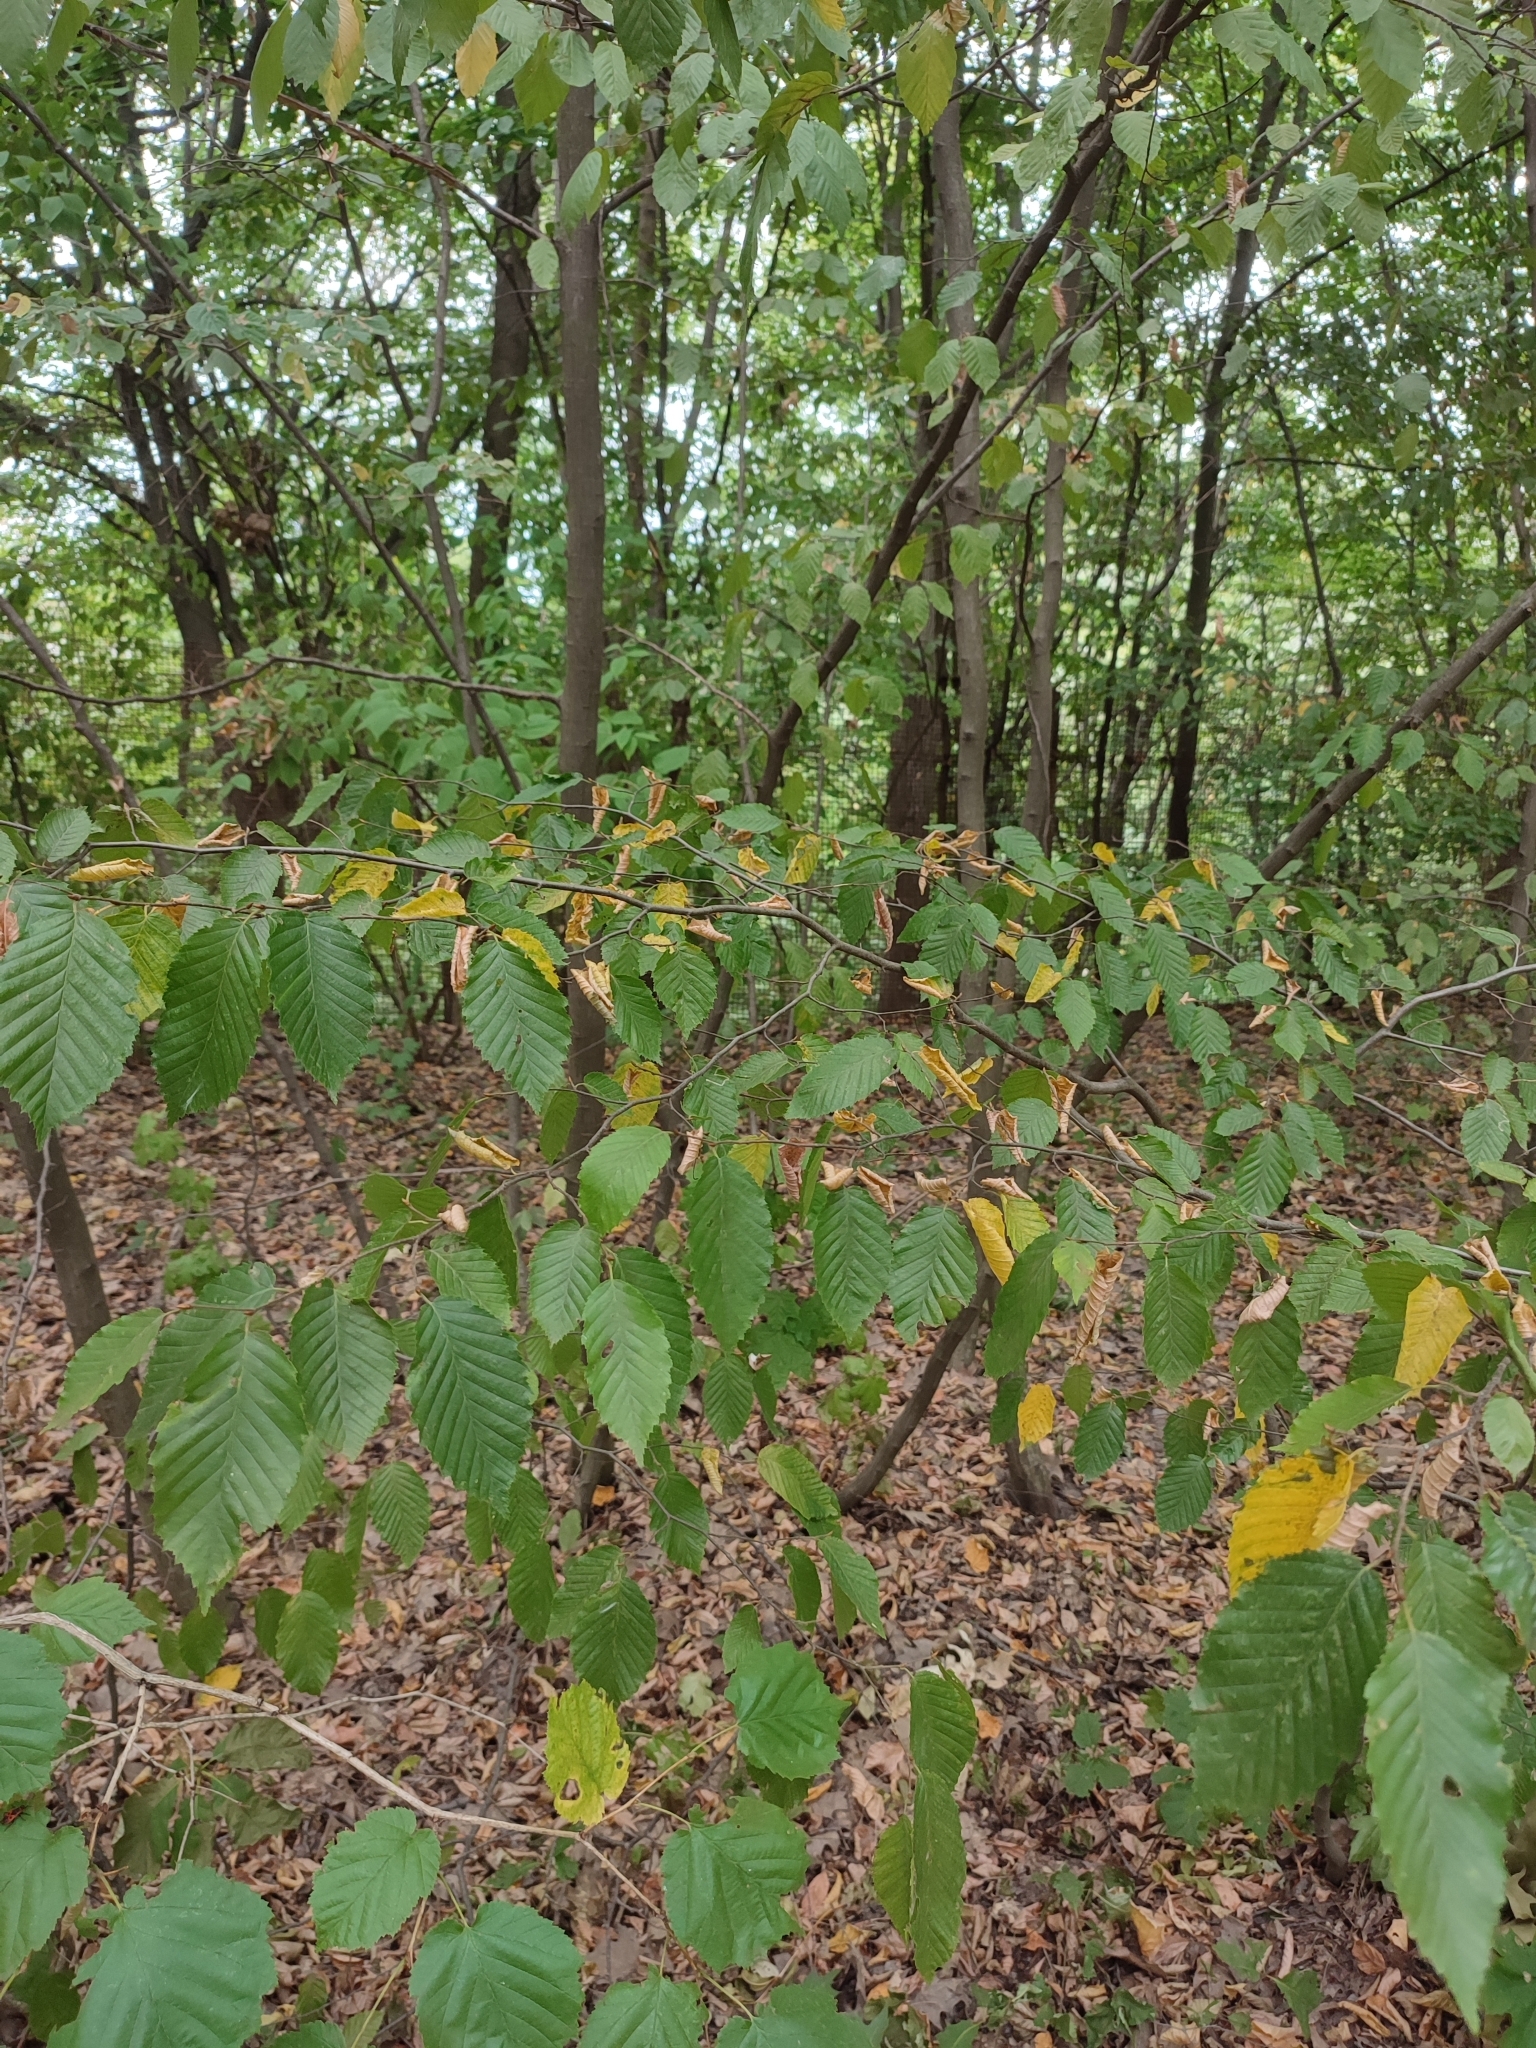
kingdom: Plantae
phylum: Tracheophyta
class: Magnoliopsida
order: Fagales
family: Betulaceae
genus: Carpinus
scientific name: Carpinus betulus
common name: Hornbeam
